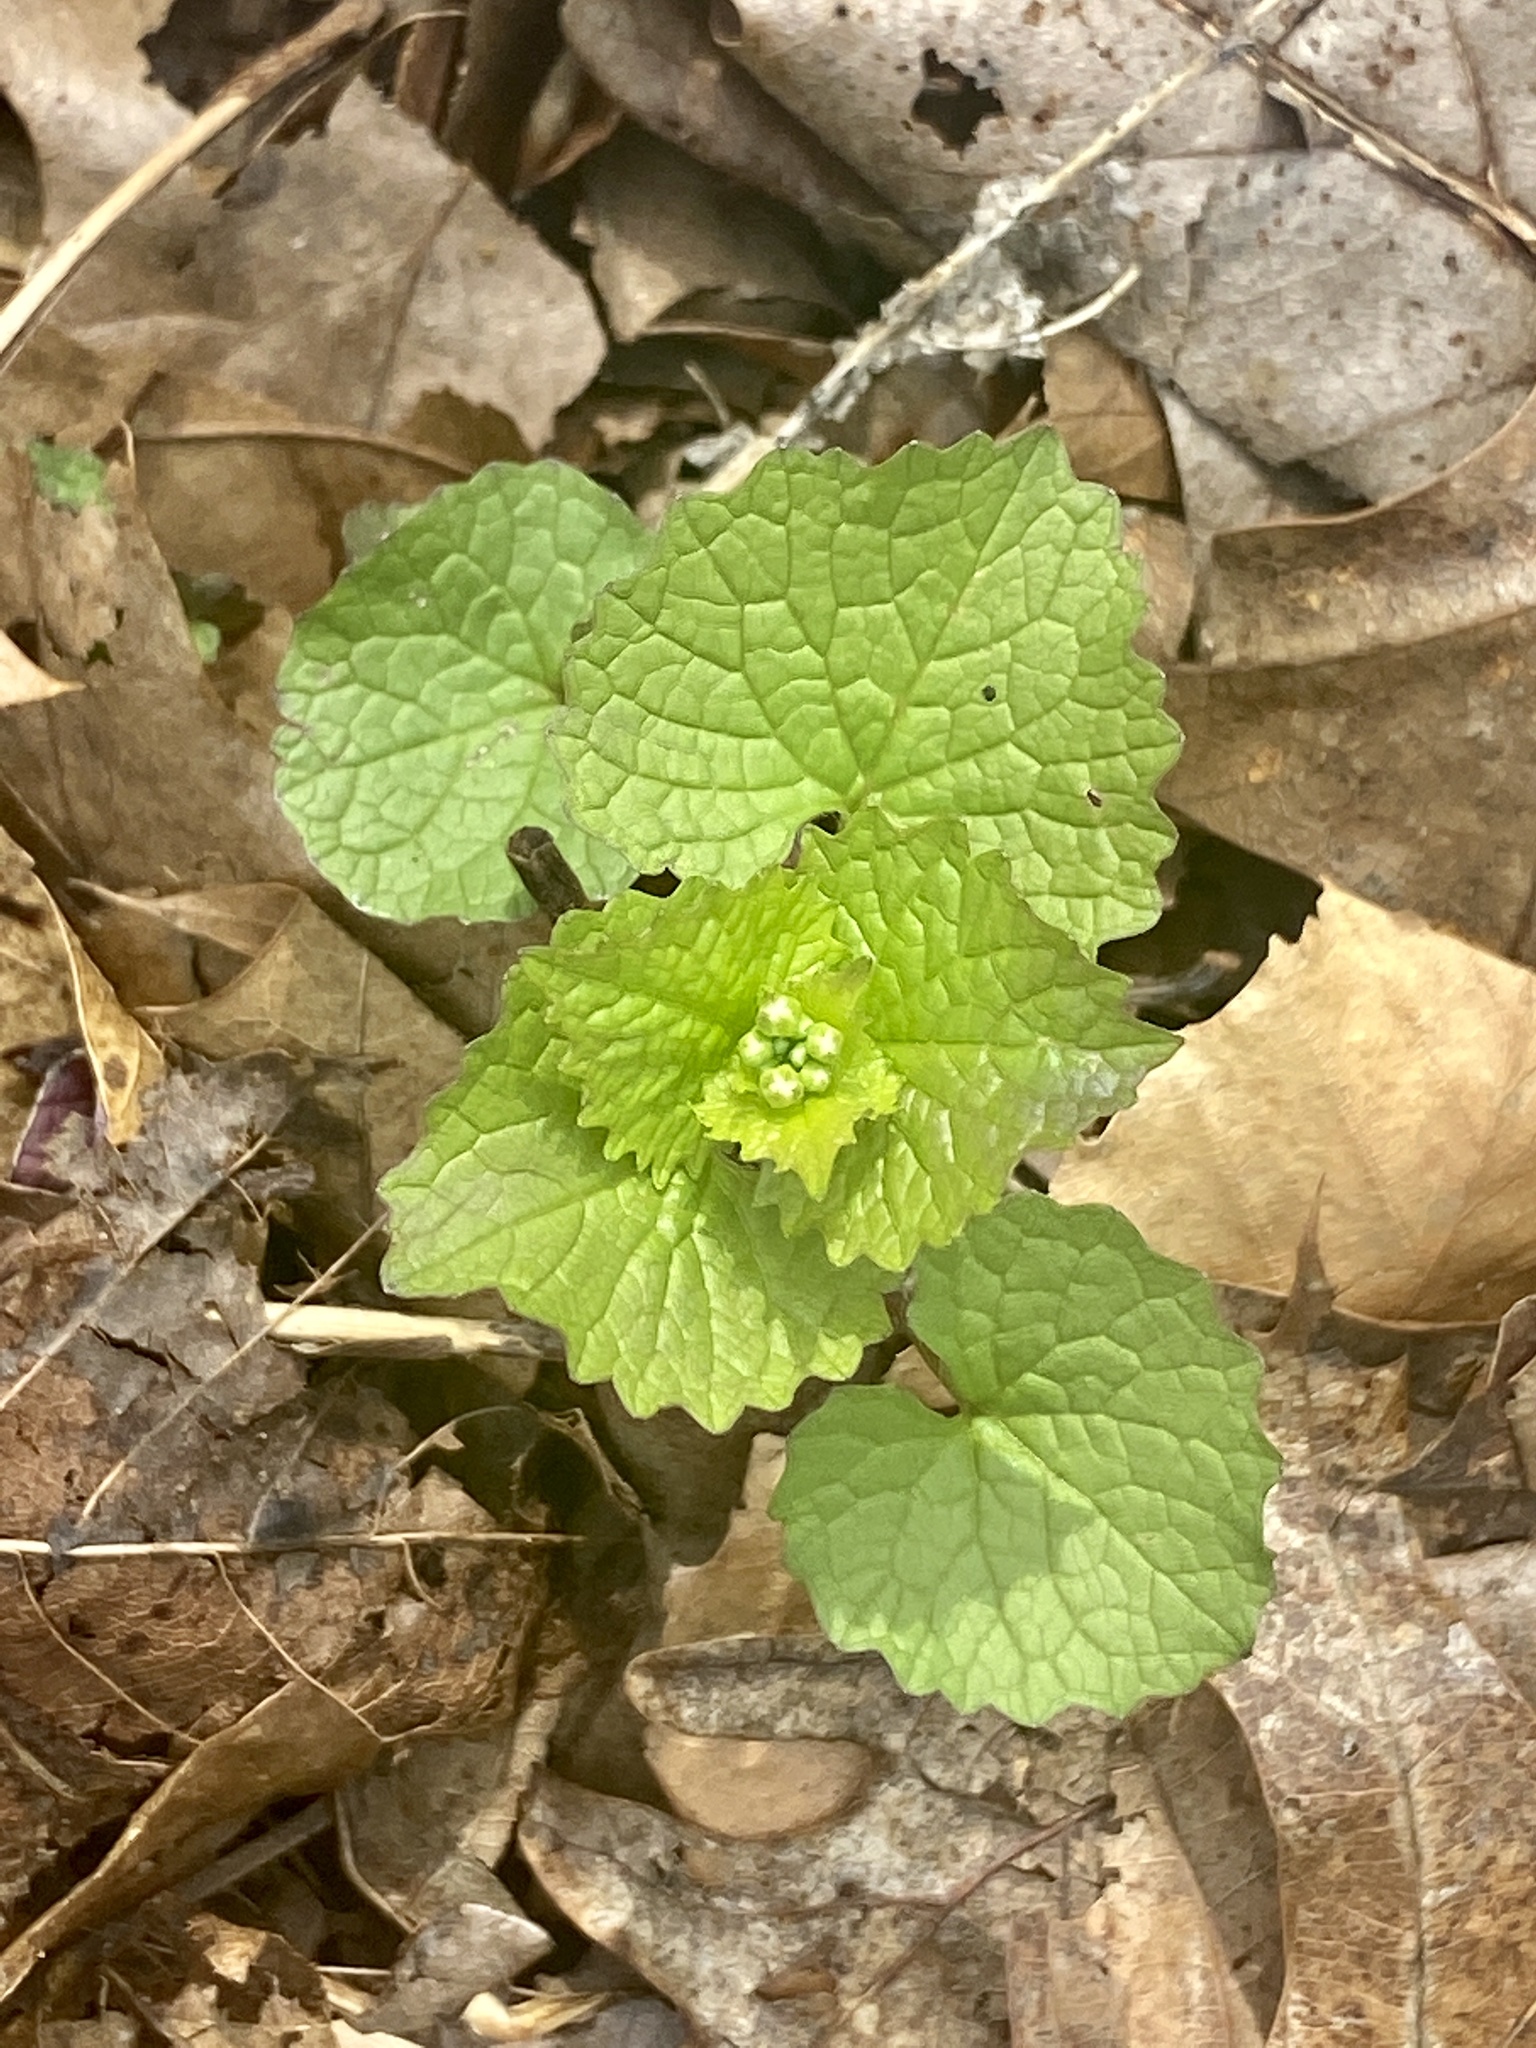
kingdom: Plantae
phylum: Tracheophyta
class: Magnoliopsida
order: Brassicales
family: Brassicaceae
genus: Alliaria
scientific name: Alliaria petiolata
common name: Garlic mustard
